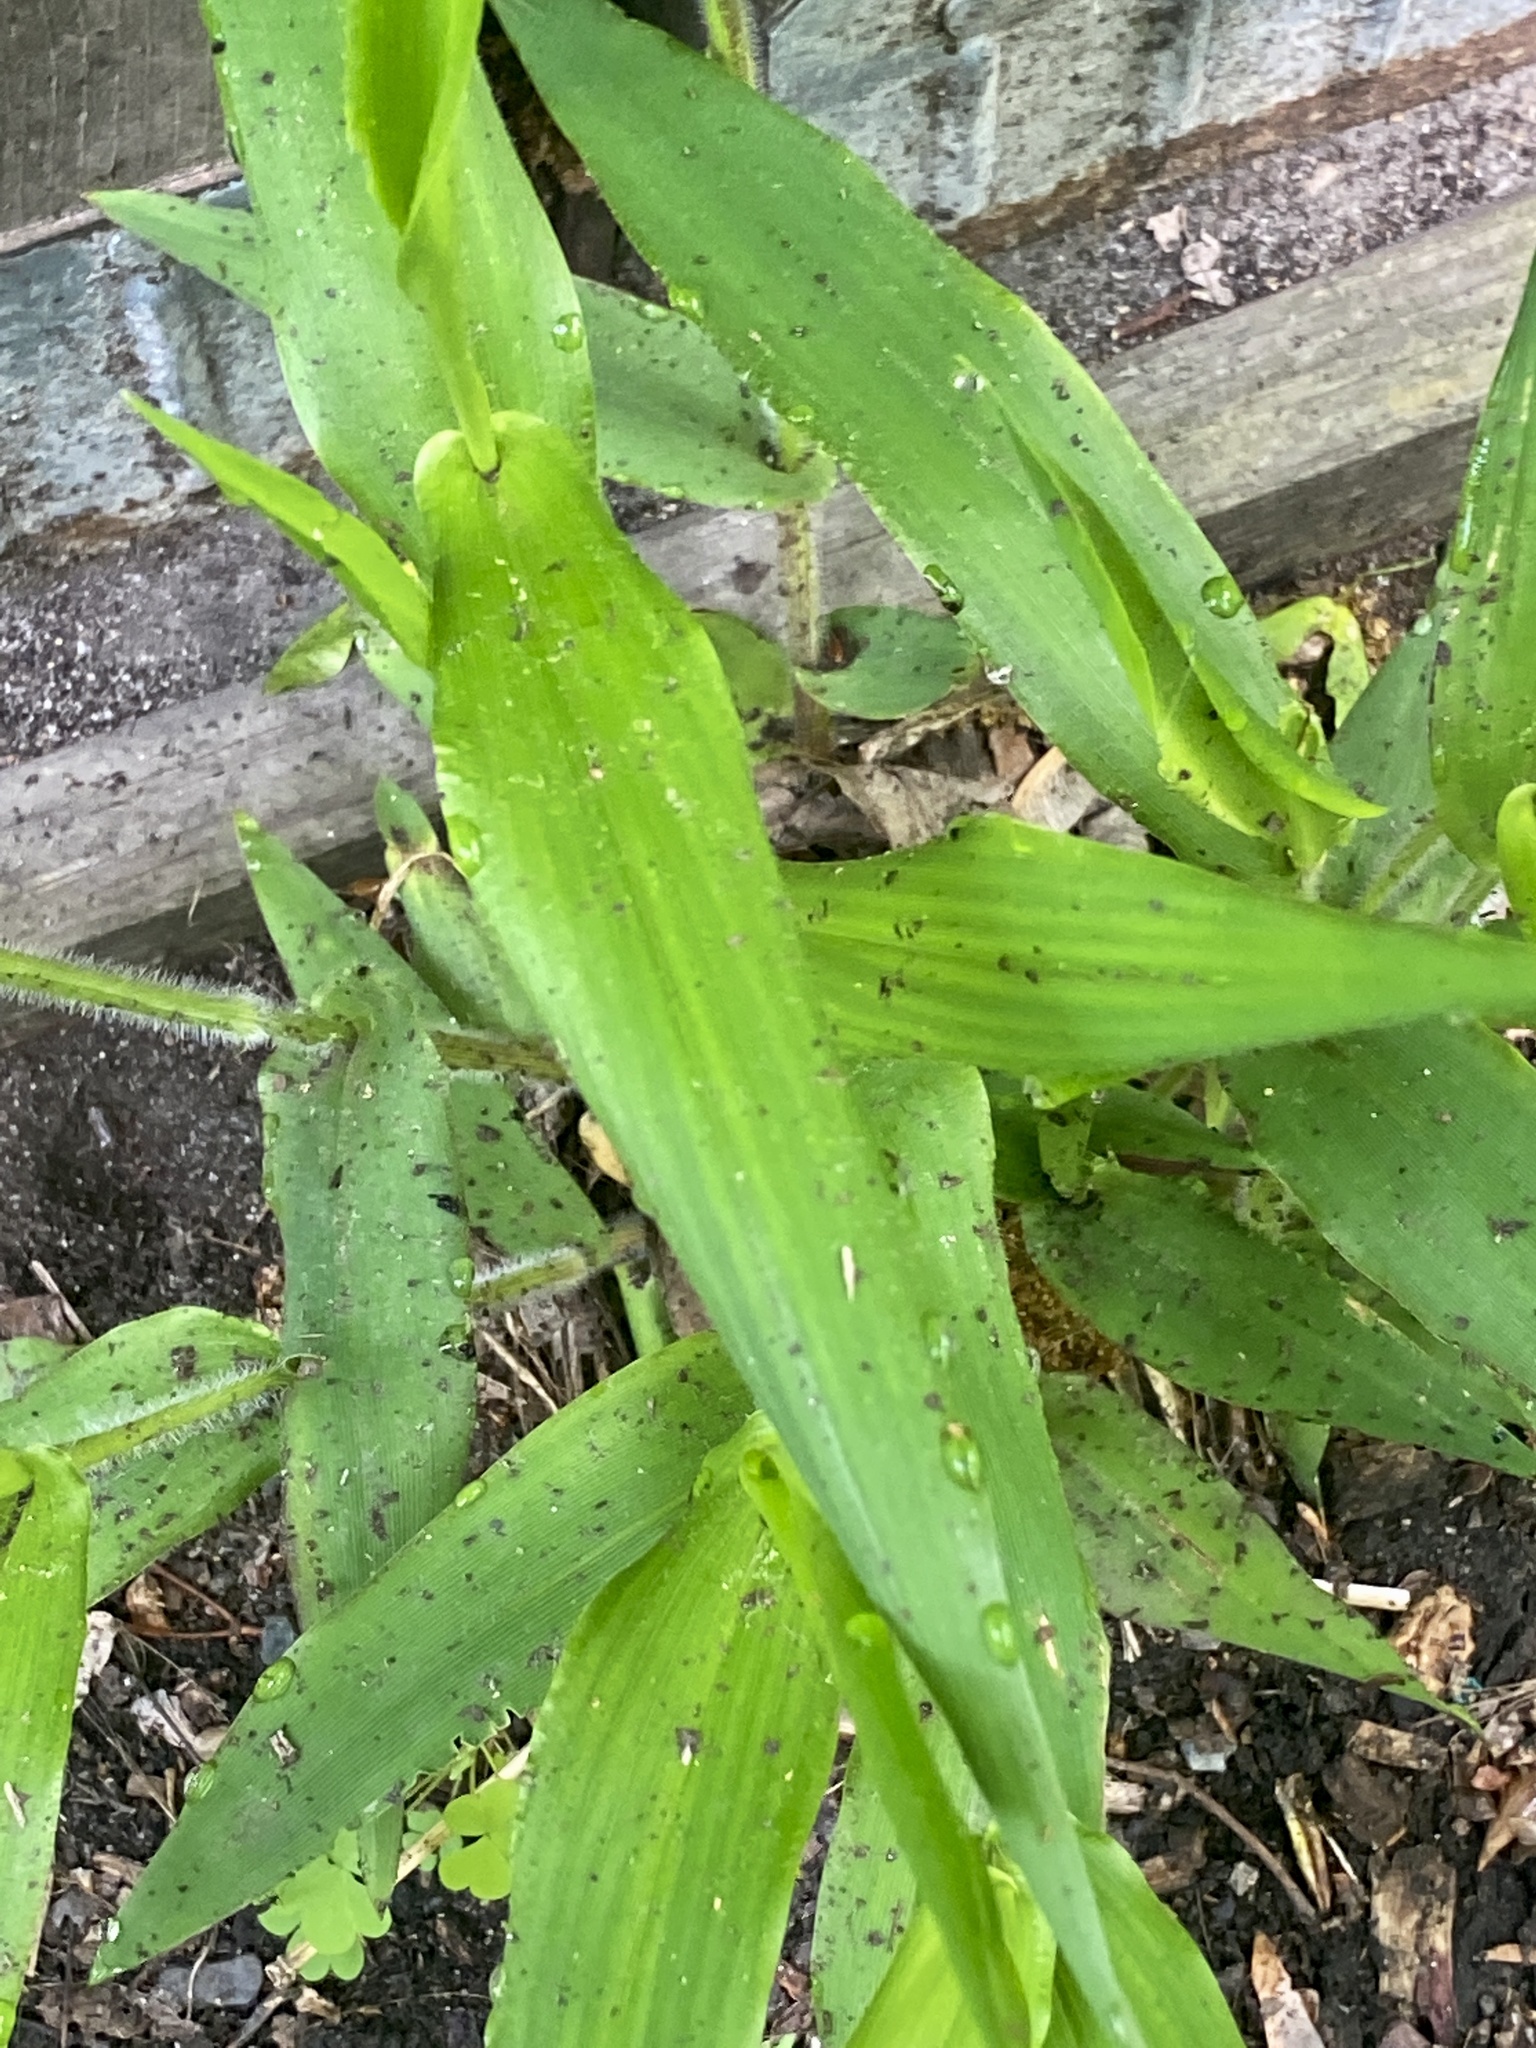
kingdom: Plantae
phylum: Tracheophyta
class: Liliopsida
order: Poales
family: Poaceae
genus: Dichanthelium
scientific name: Dichanthelium clandestinum
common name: Deer-tongue grass
